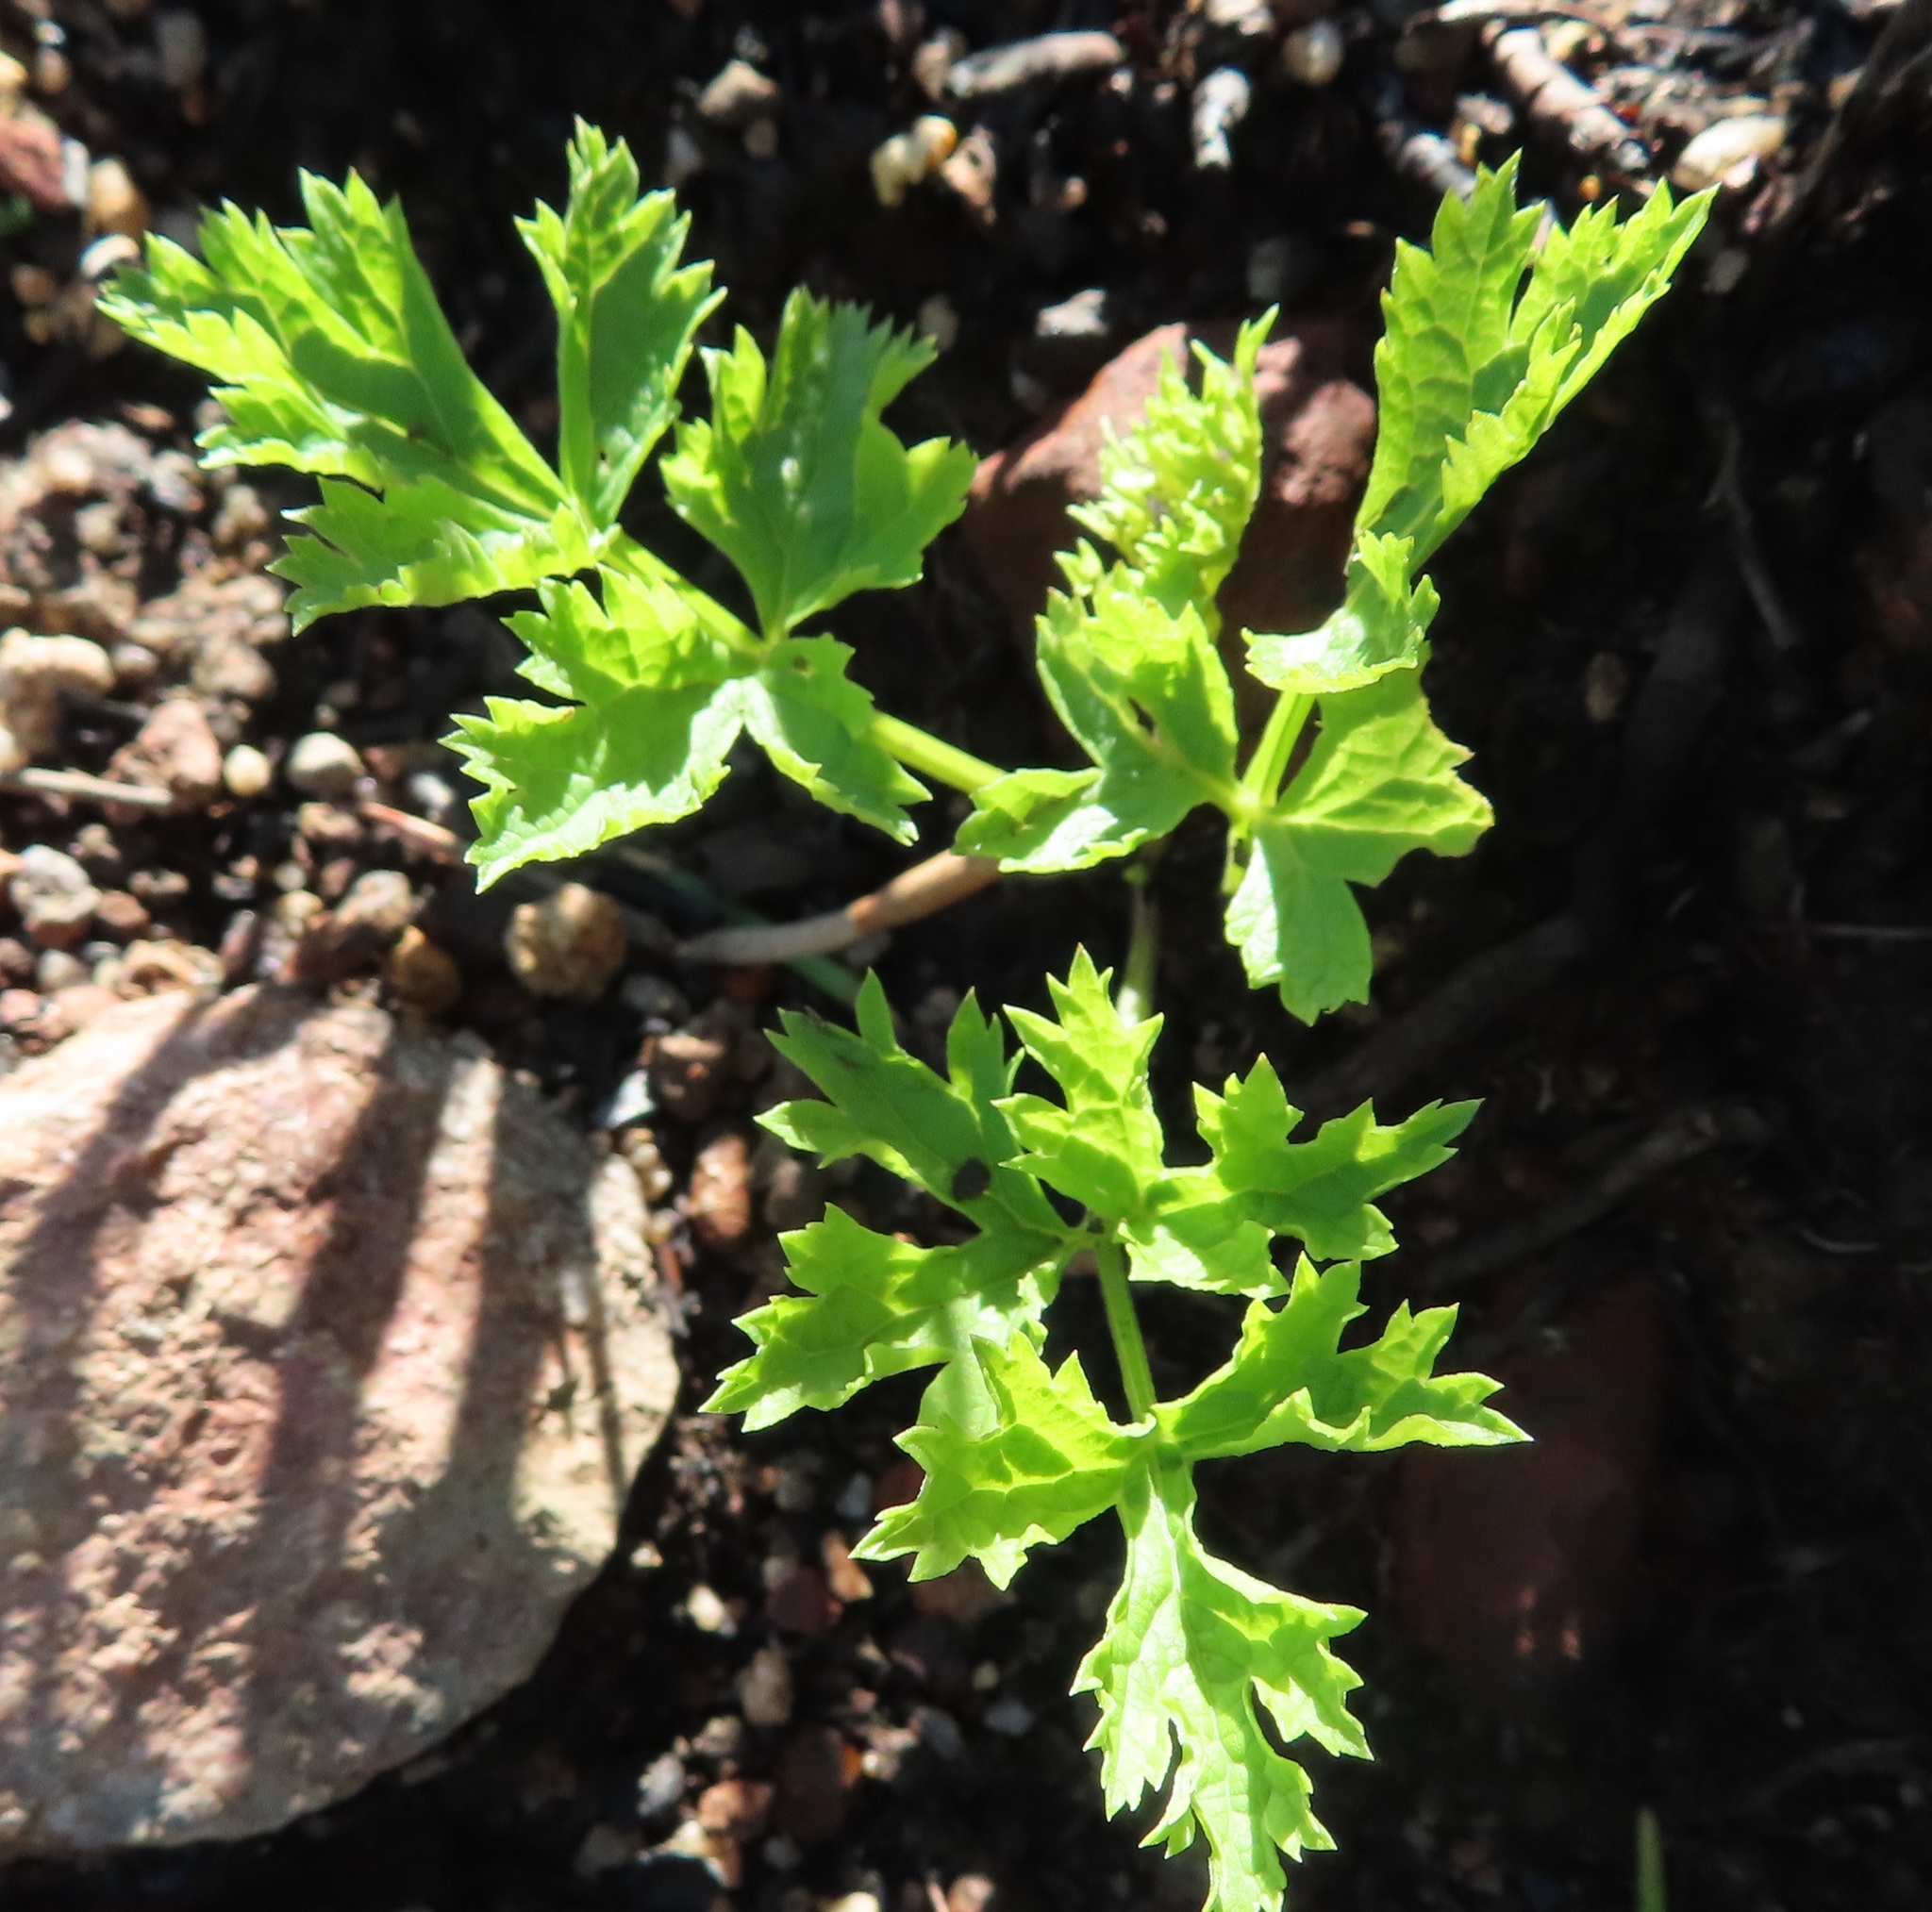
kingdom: Plantae
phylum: Tracheophyta
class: Magnoliopsida
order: Ranunculales
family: Ranunculaceae
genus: Knowltonia
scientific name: Knowltonia tenuifolia
